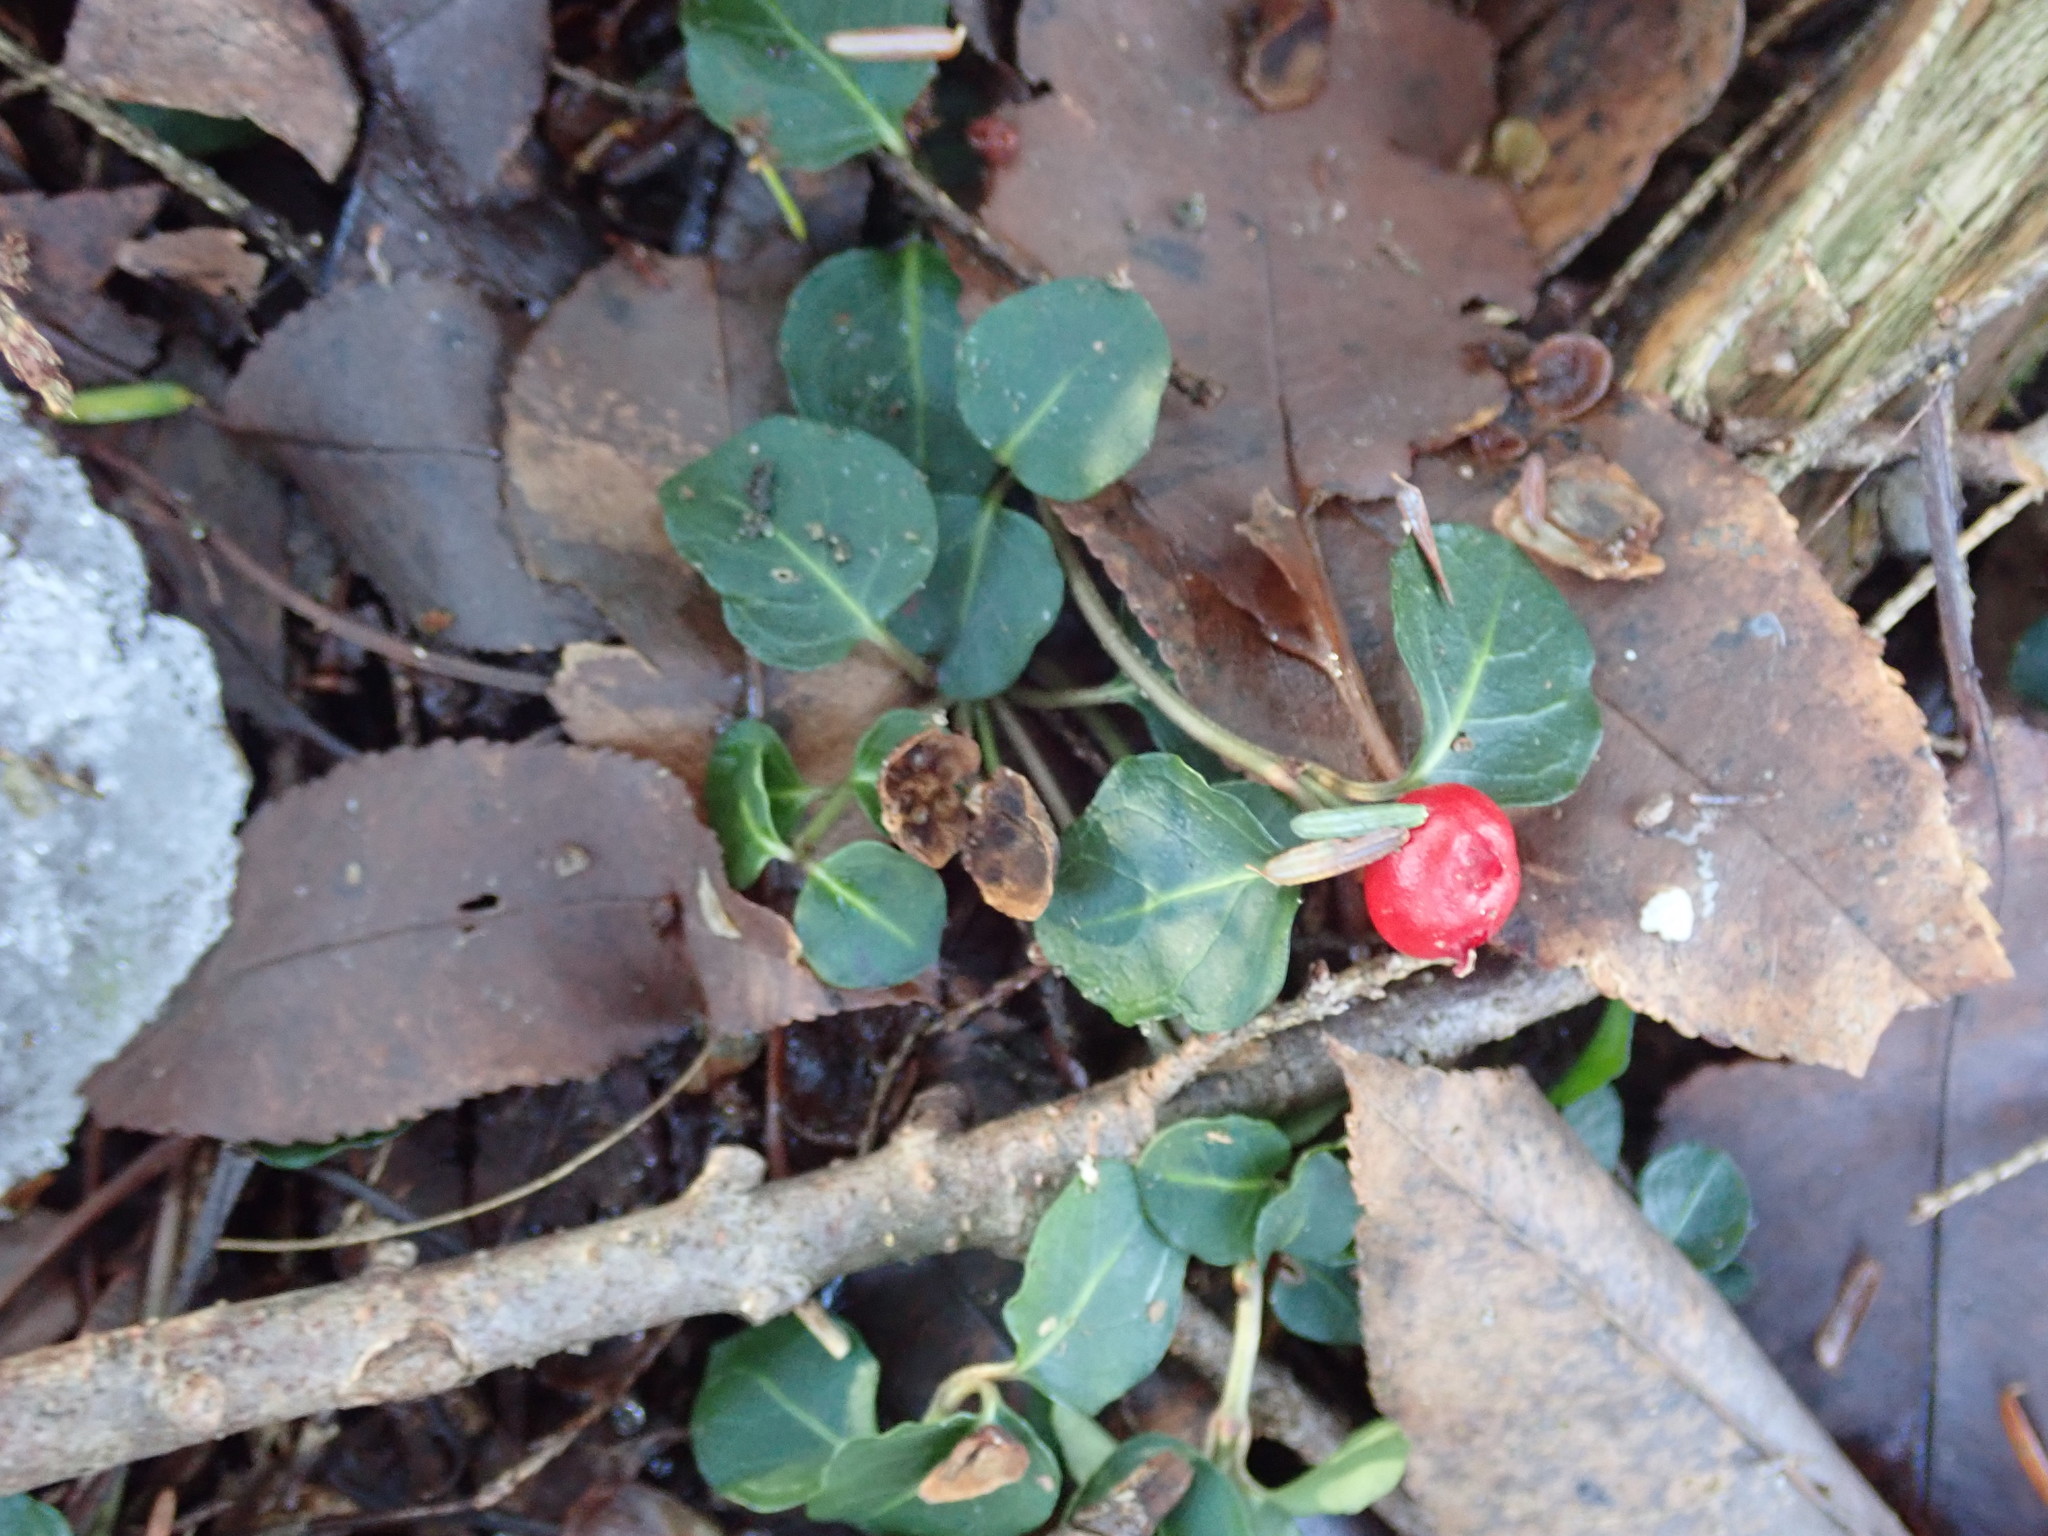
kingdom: Plantae
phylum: Tracheophyta
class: Magnoliopsida
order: Gentianales
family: Rubiaceae
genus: Mitchella
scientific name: Mitchella repens
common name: Partridge-berry
